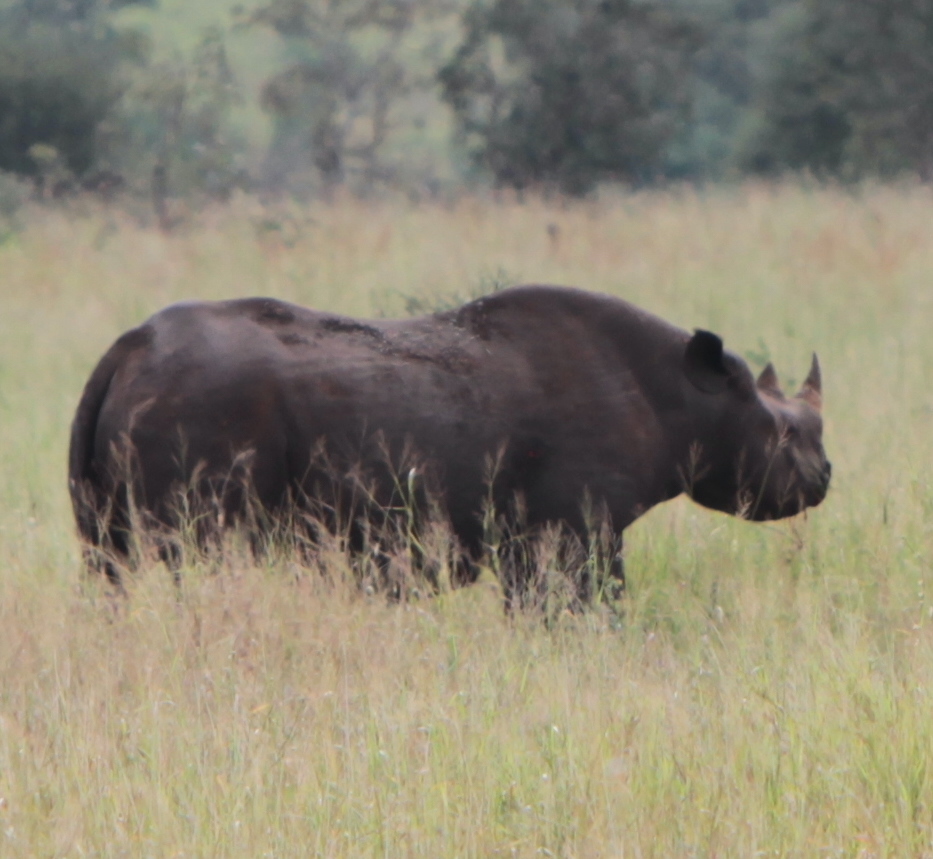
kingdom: Animalia
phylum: Chordata
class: Mammalia
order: Perissodactyla
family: Rhinocerotidae
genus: Diceros
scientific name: Diceros bicornis
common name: Black rhinoceros
